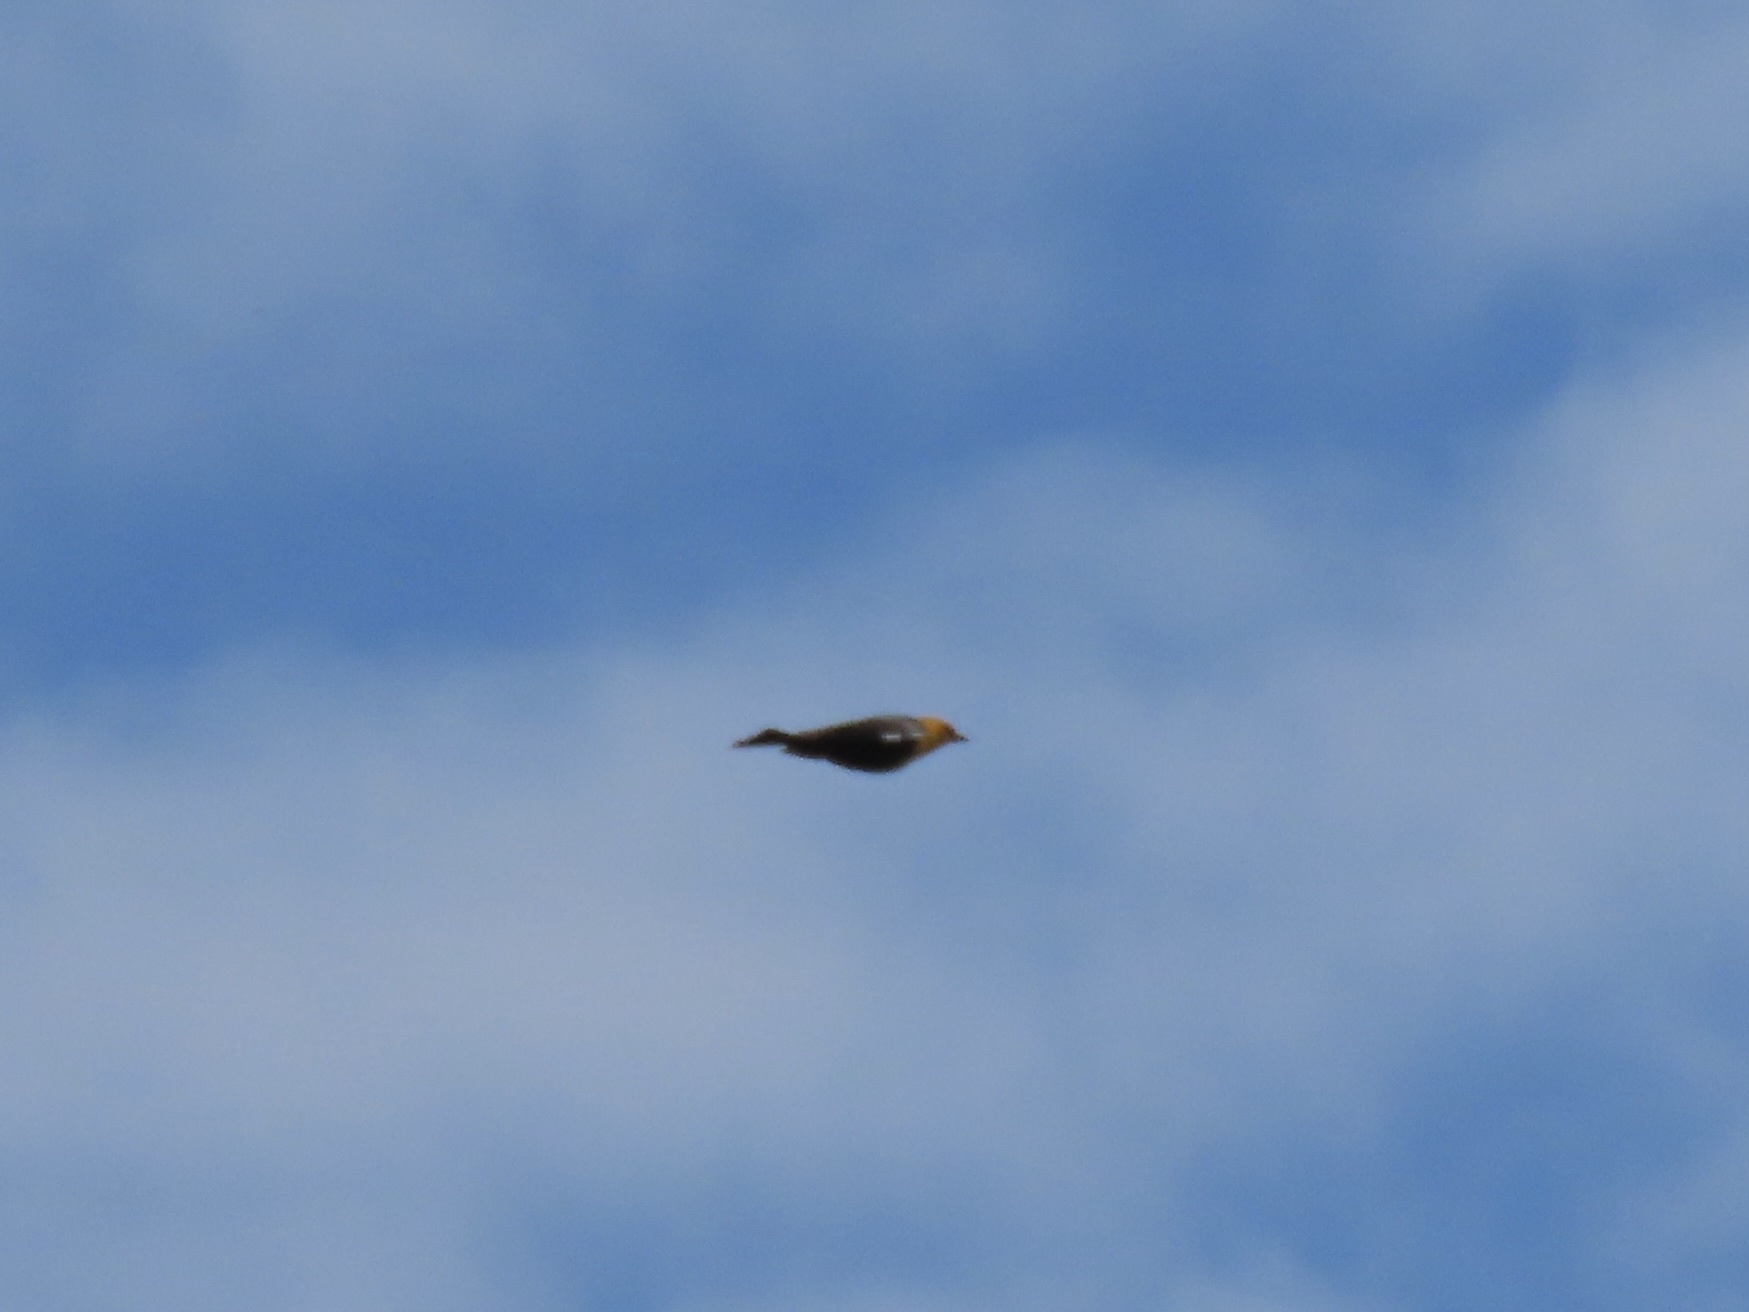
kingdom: Animalia
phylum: Chordata
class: Aves
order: Passeriformes
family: Icteridae
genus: Xanthocephalus
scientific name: Xanthocephalus xanthocephalus
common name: Yellow-headed blackbird
